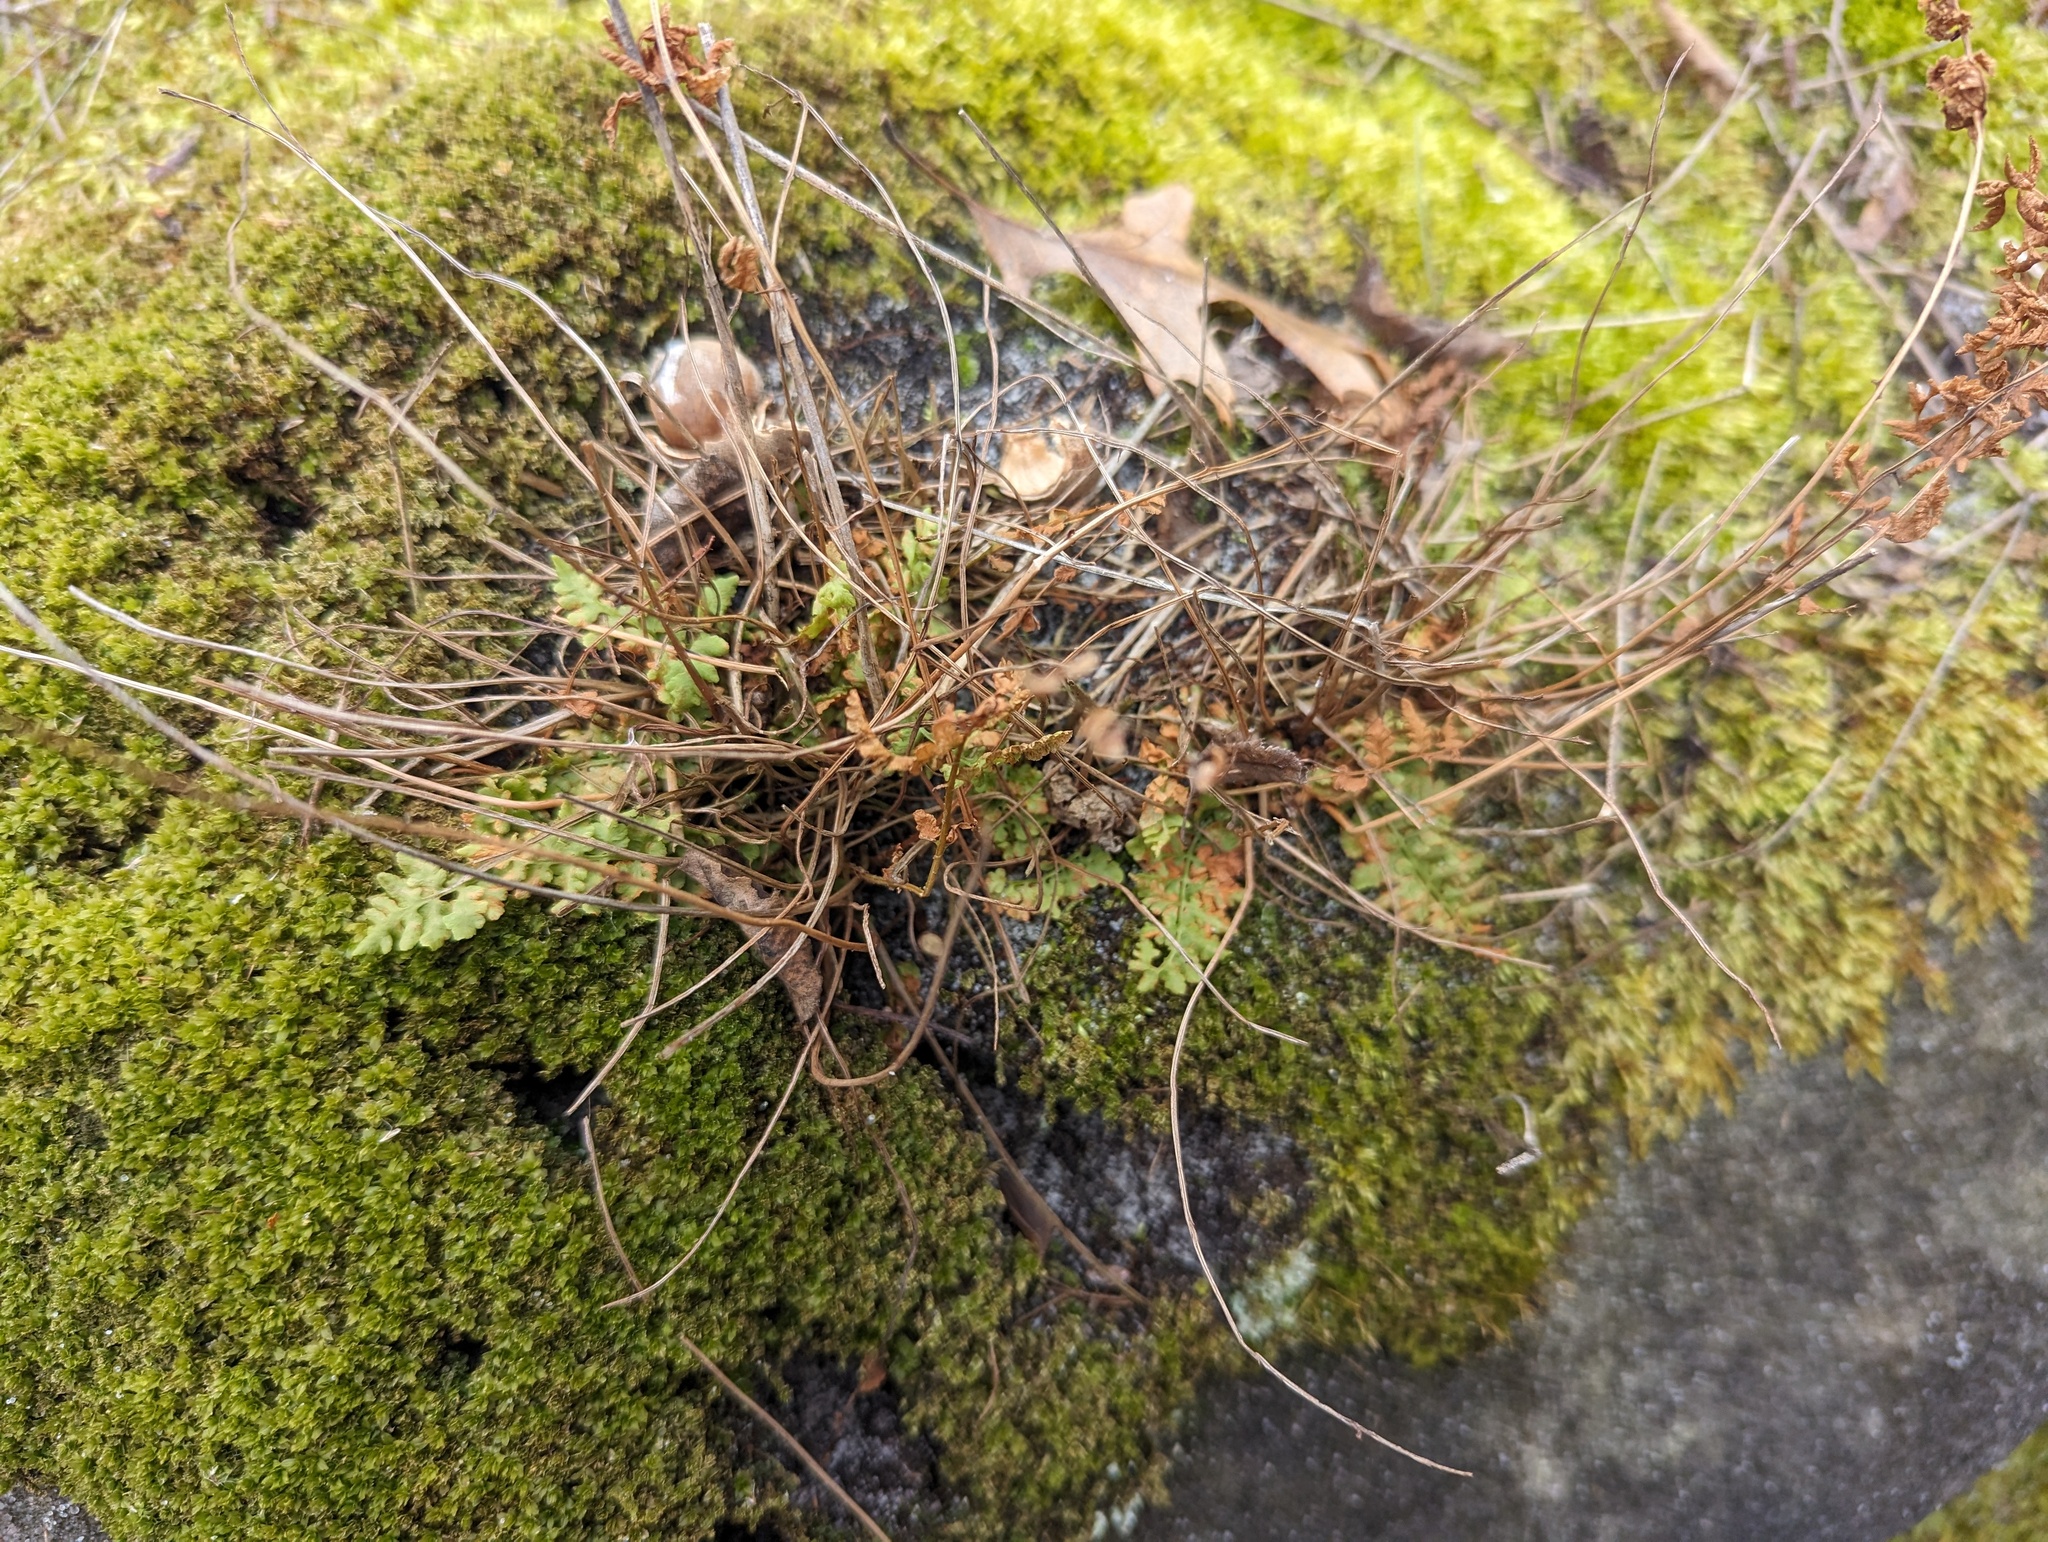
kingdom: Plantae
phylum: Tracheophyta
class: Polypodiopsida
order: Polypodiales
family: Woodsiaceae
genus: Physematium
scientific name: Physematium obtusum
